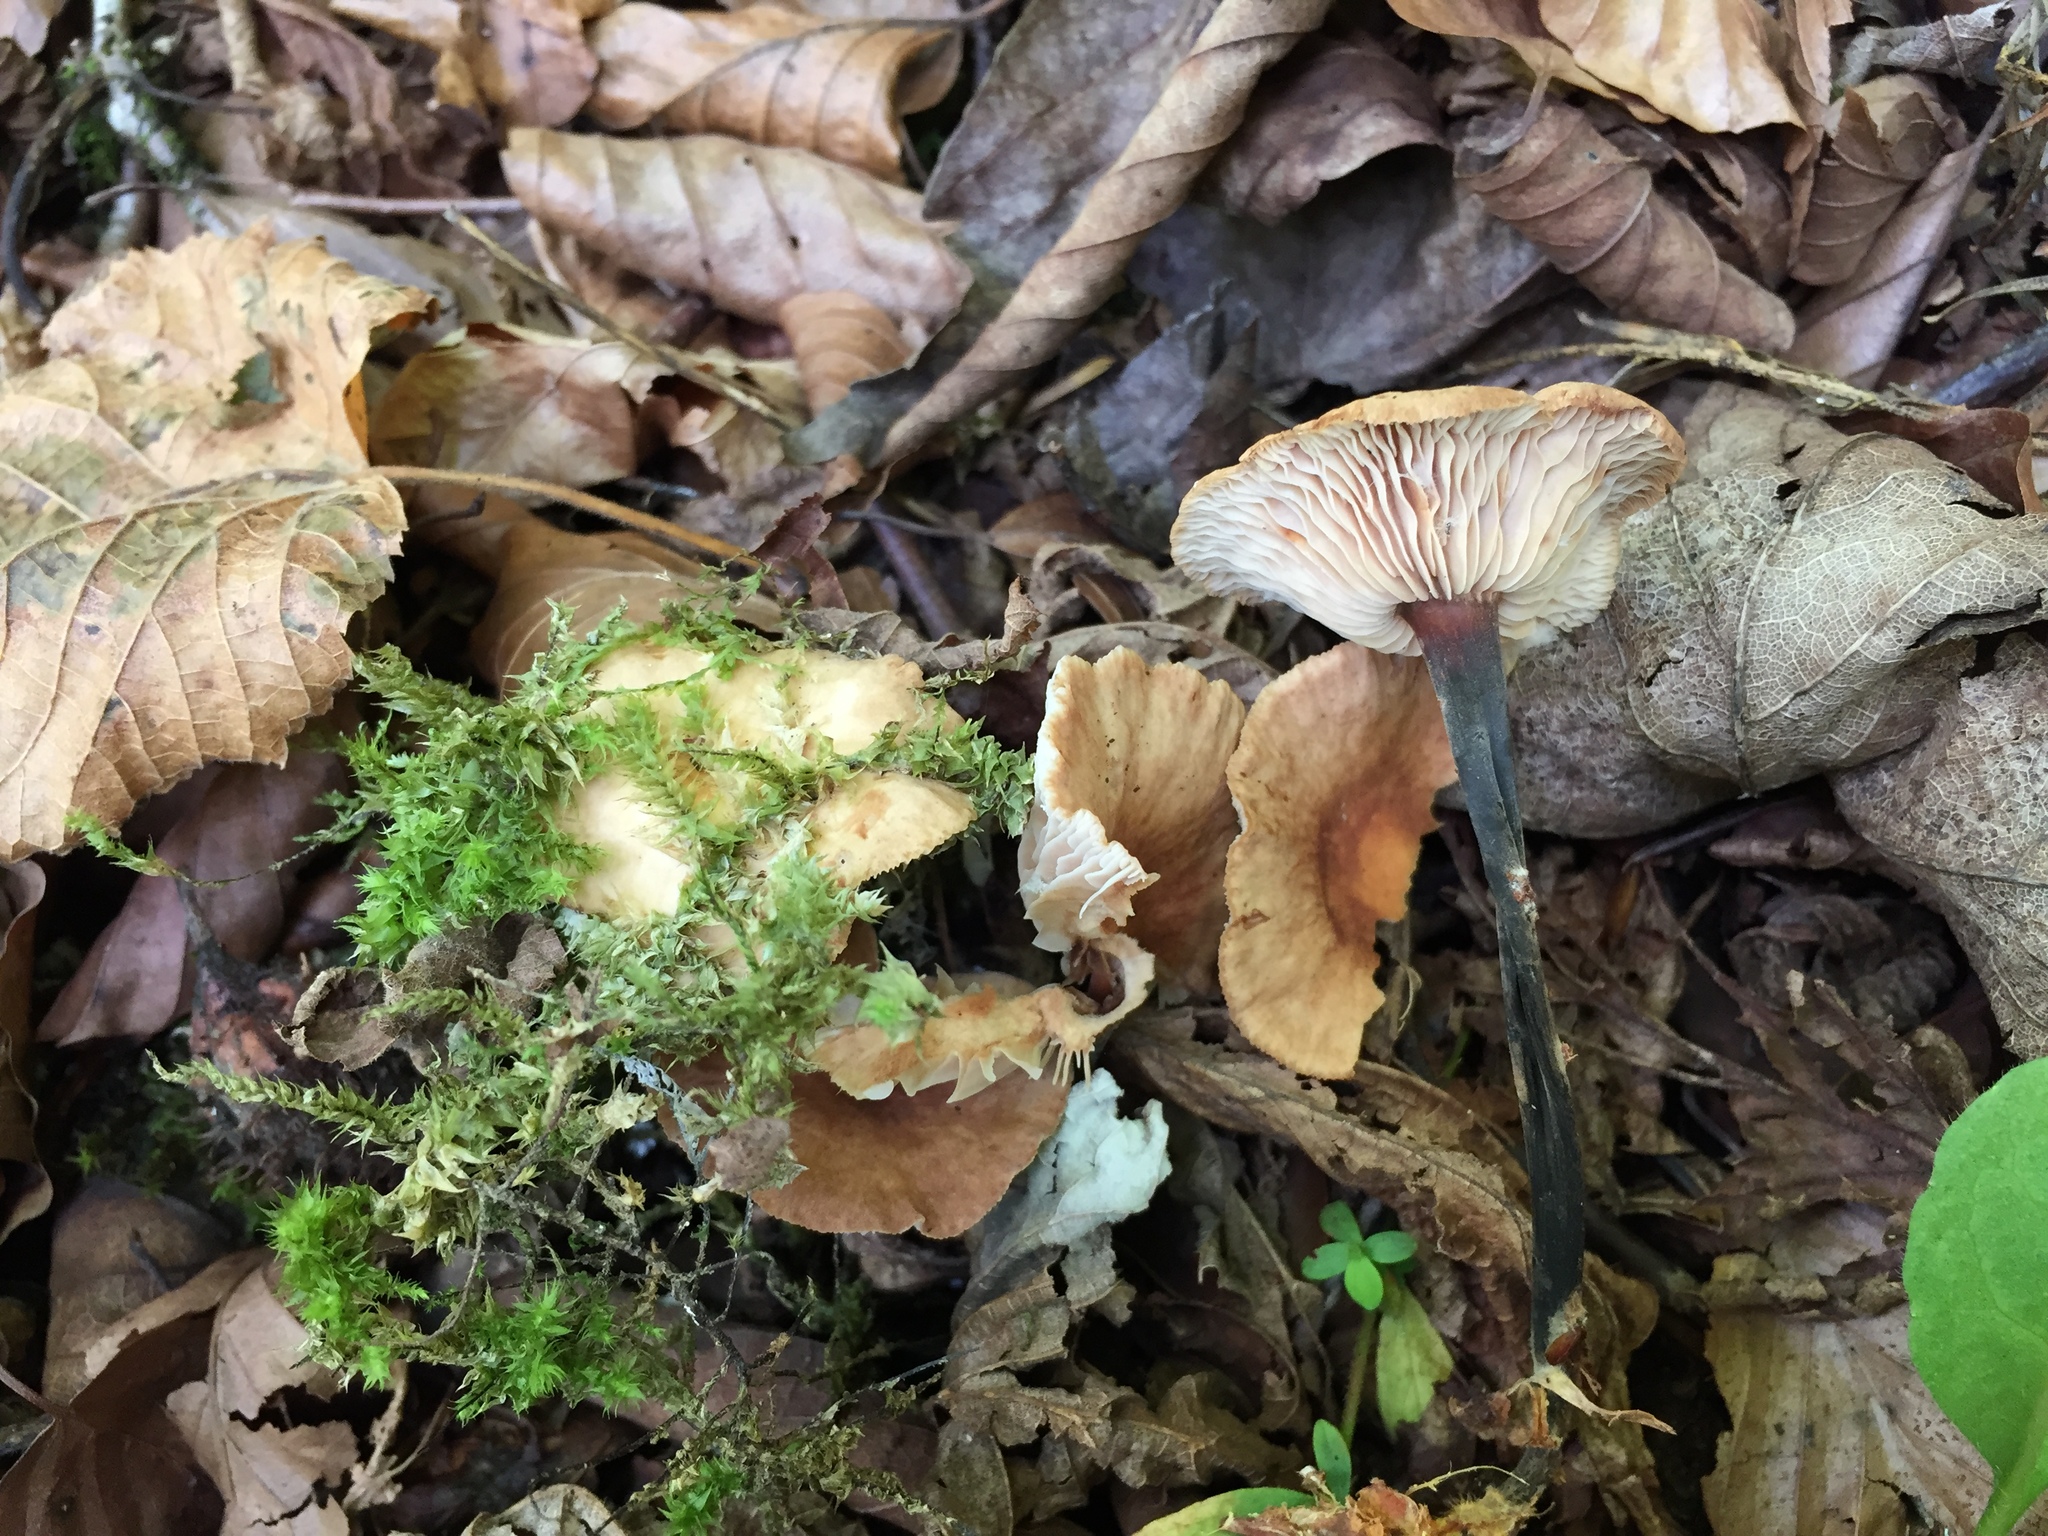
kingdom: Fungi
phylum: Basidiomycota
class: Agaricomycetes
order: Agaricales
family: Omphalotaceae
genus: Gymnopus
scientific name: Gymnopus brassicolens
